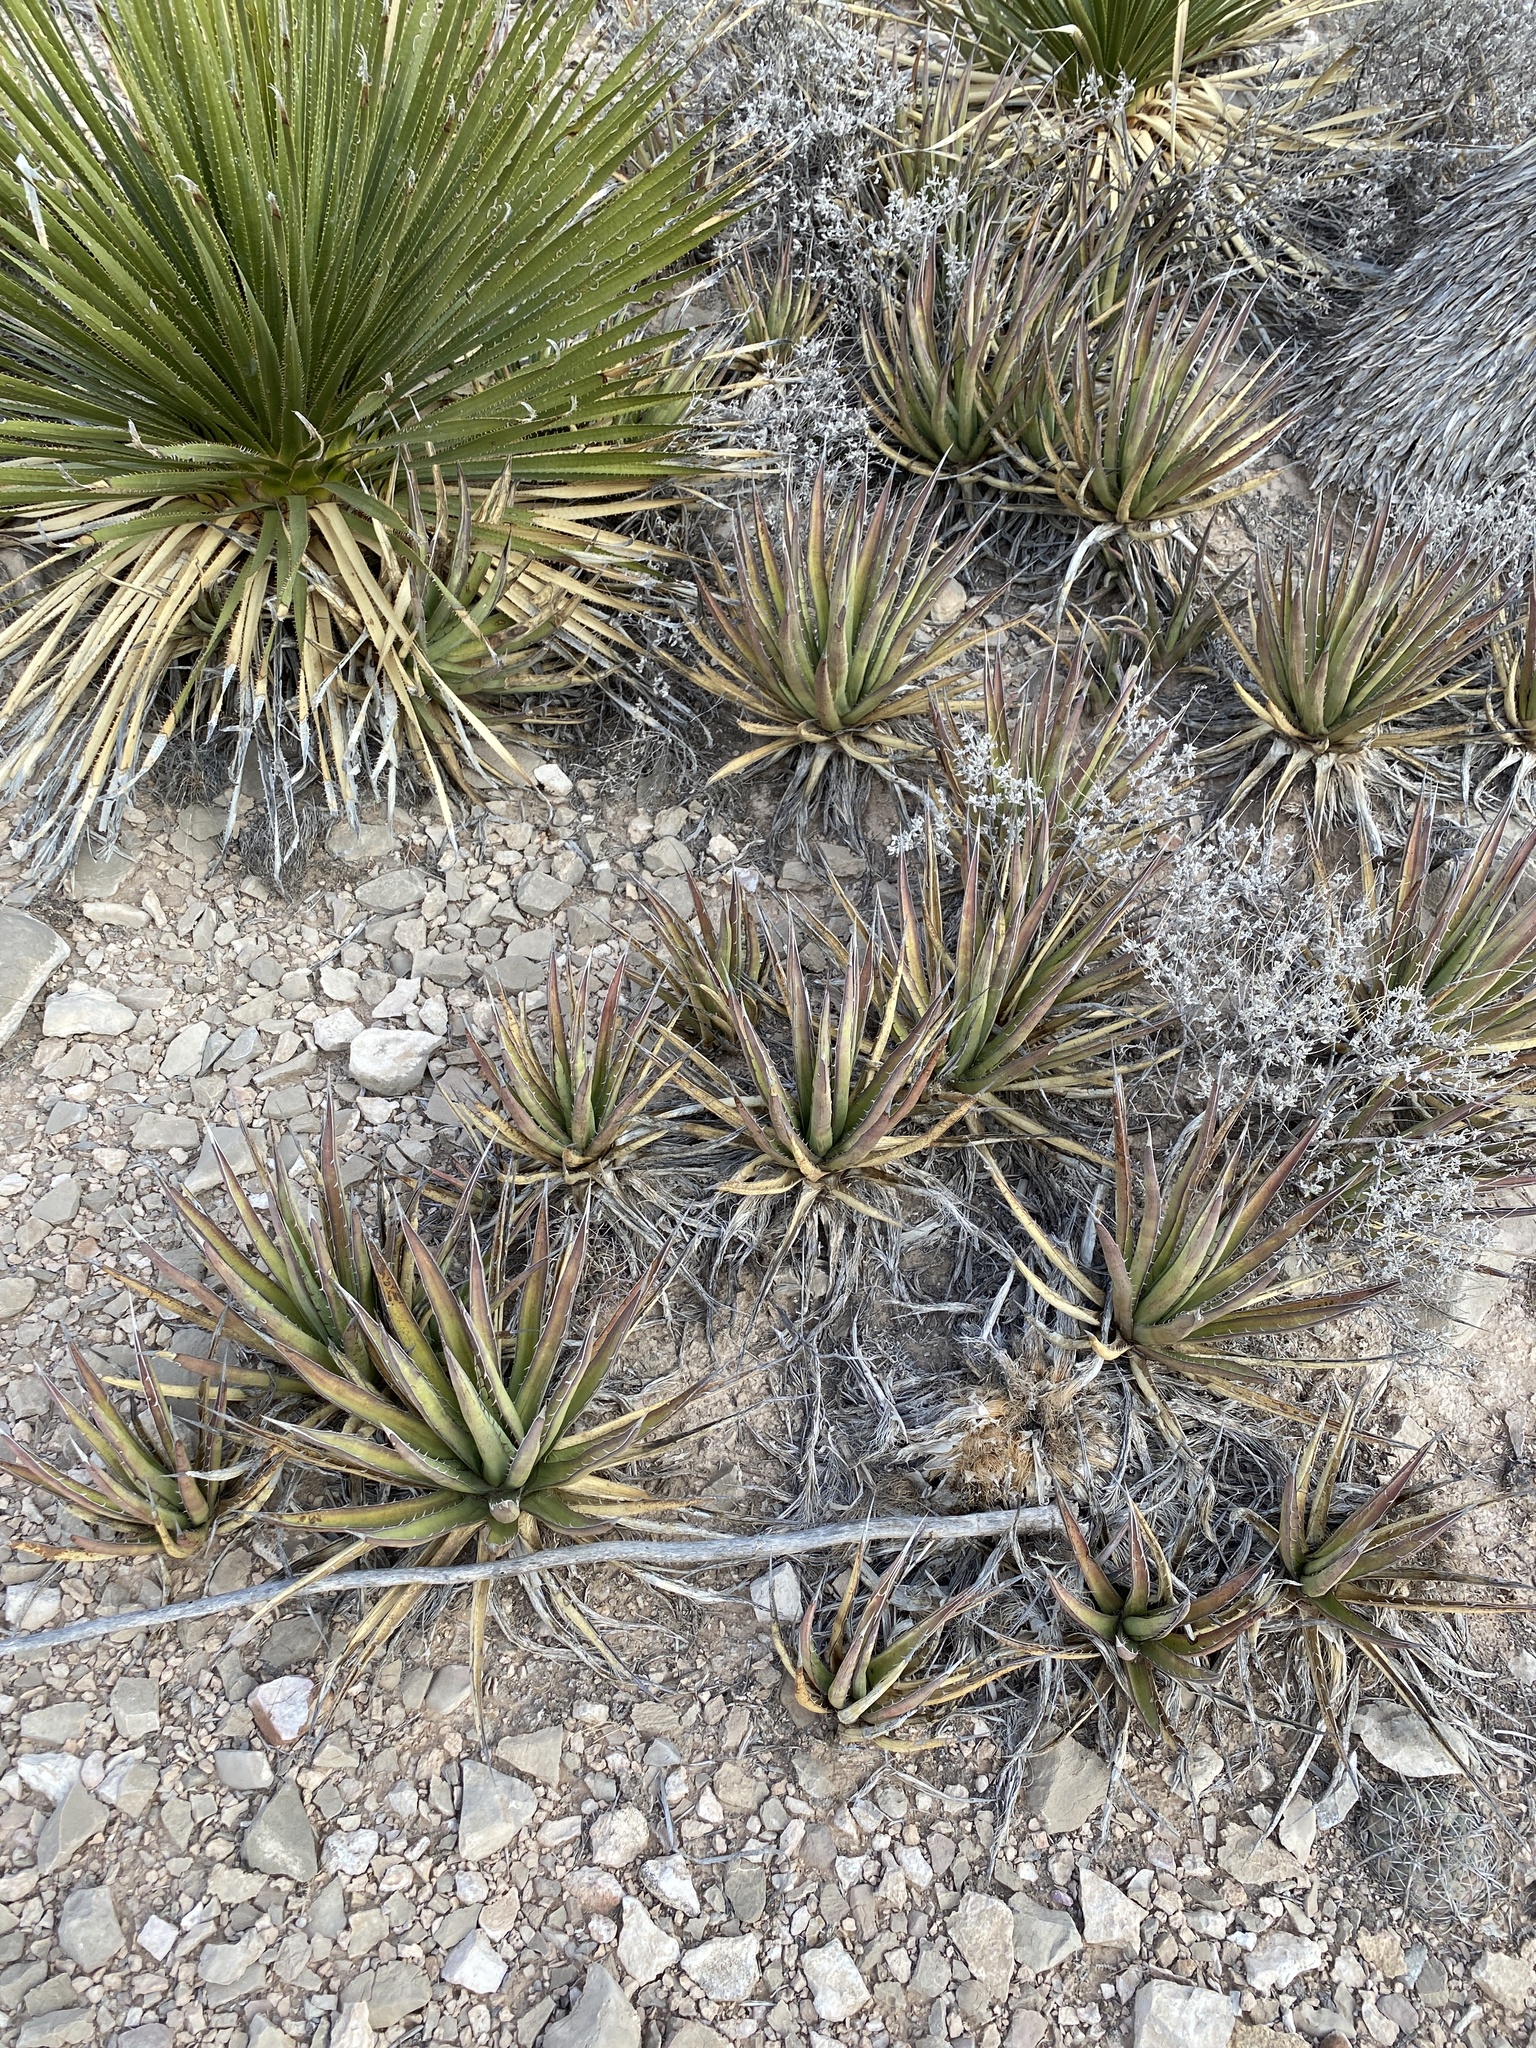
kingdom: Plantae
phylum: Tracheophyta
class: Liliopsida
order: Asparagales
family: Asparagaceae
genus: Agave
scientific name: Agave lechuguilla
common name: Lecheguilla agave
